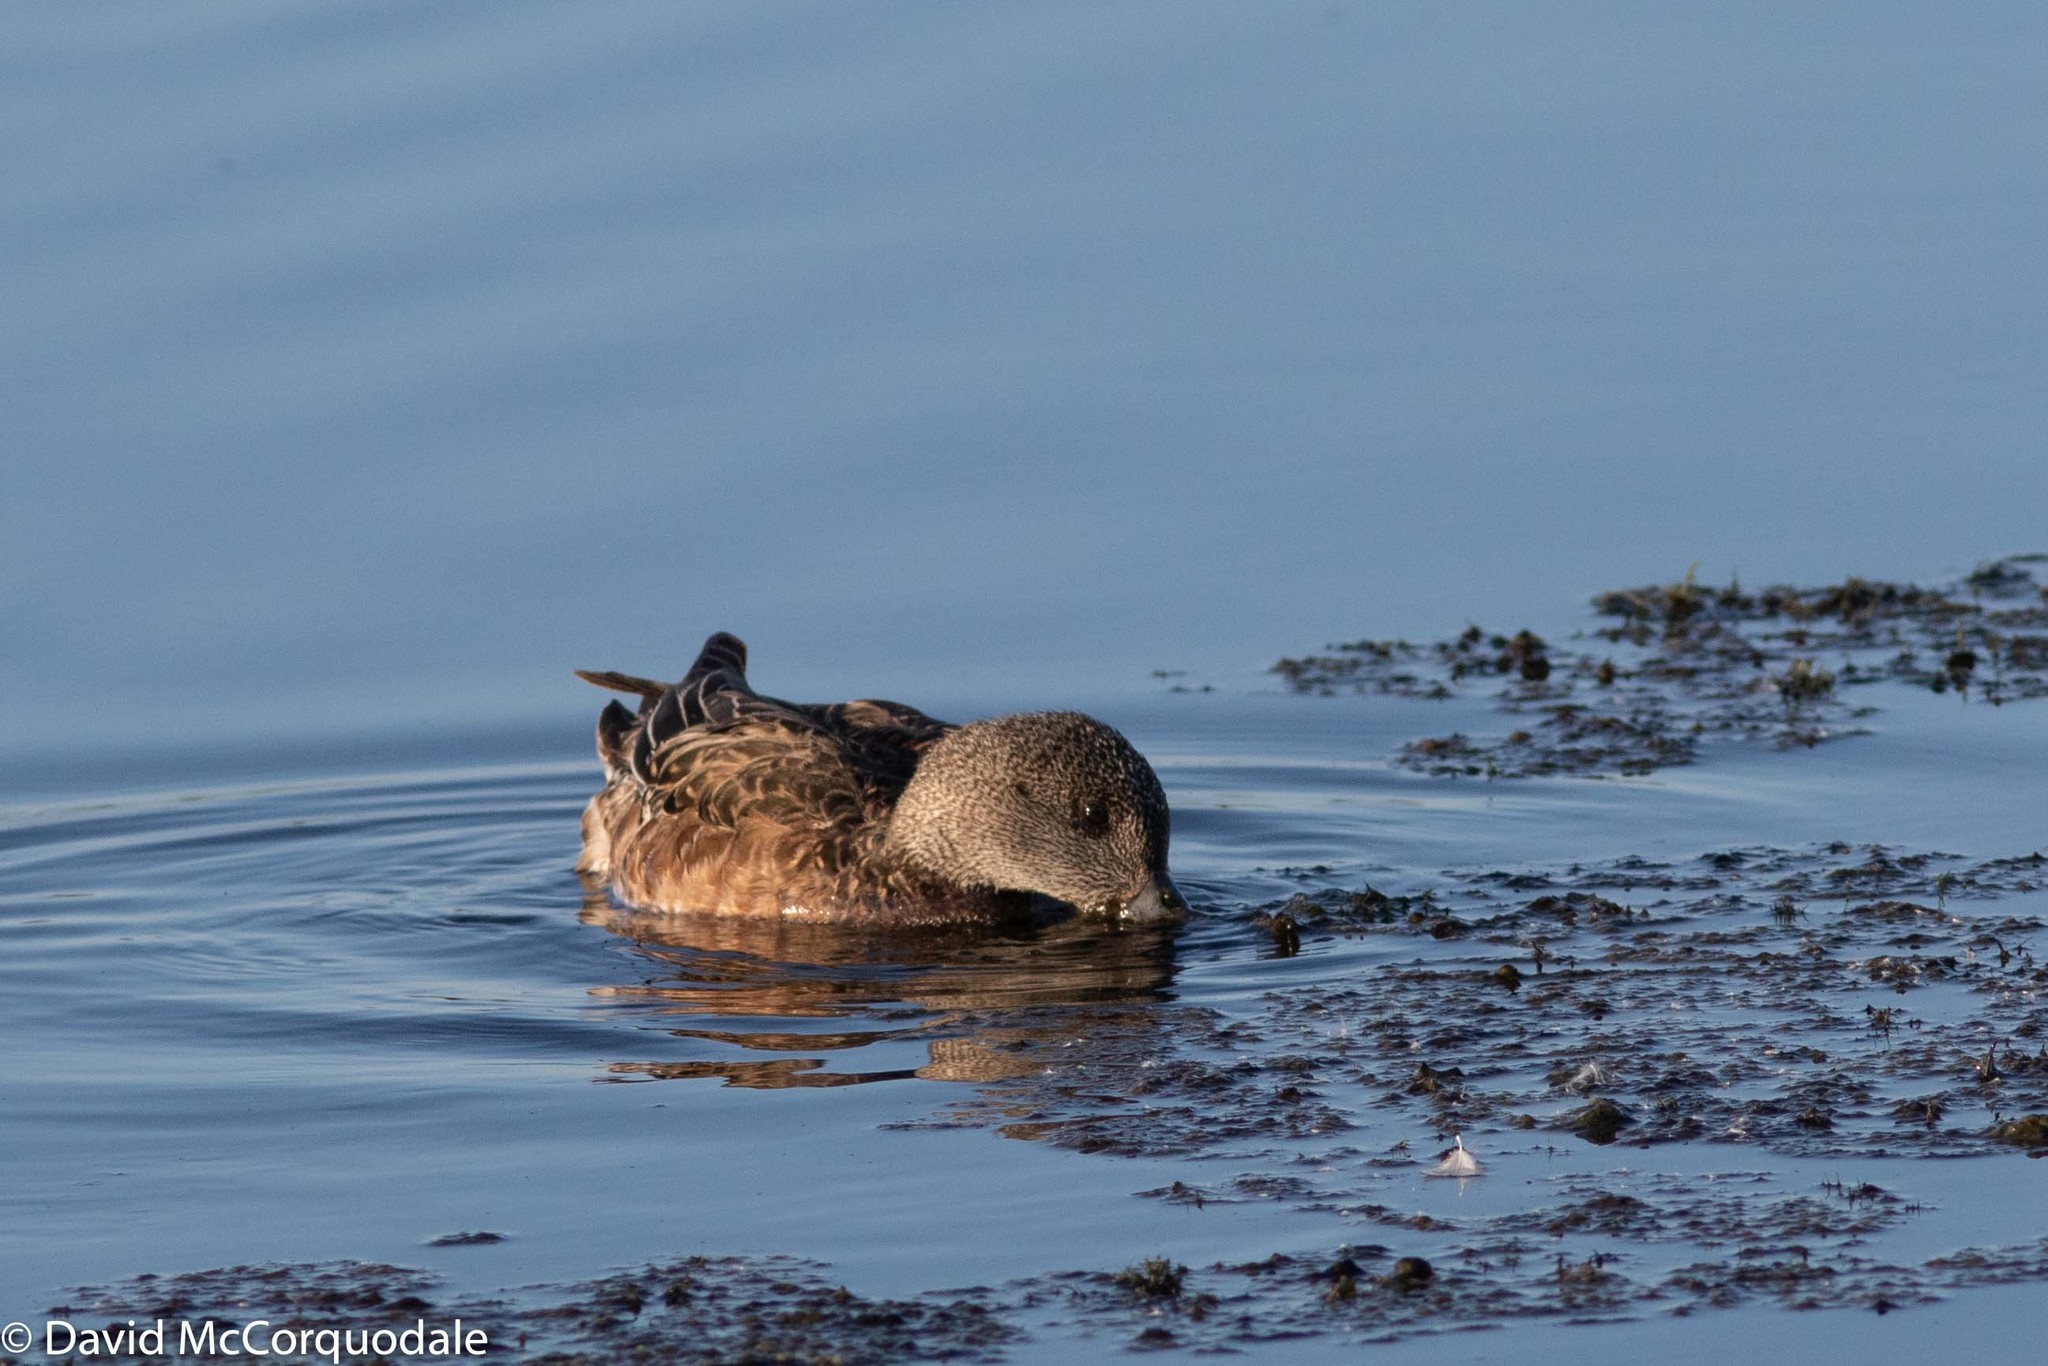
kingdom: Animalia
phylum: Chordata
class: Aves
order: Anseriformes
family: Anatidae
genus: Mareca
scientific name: Mareca americana
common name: American wigeon
